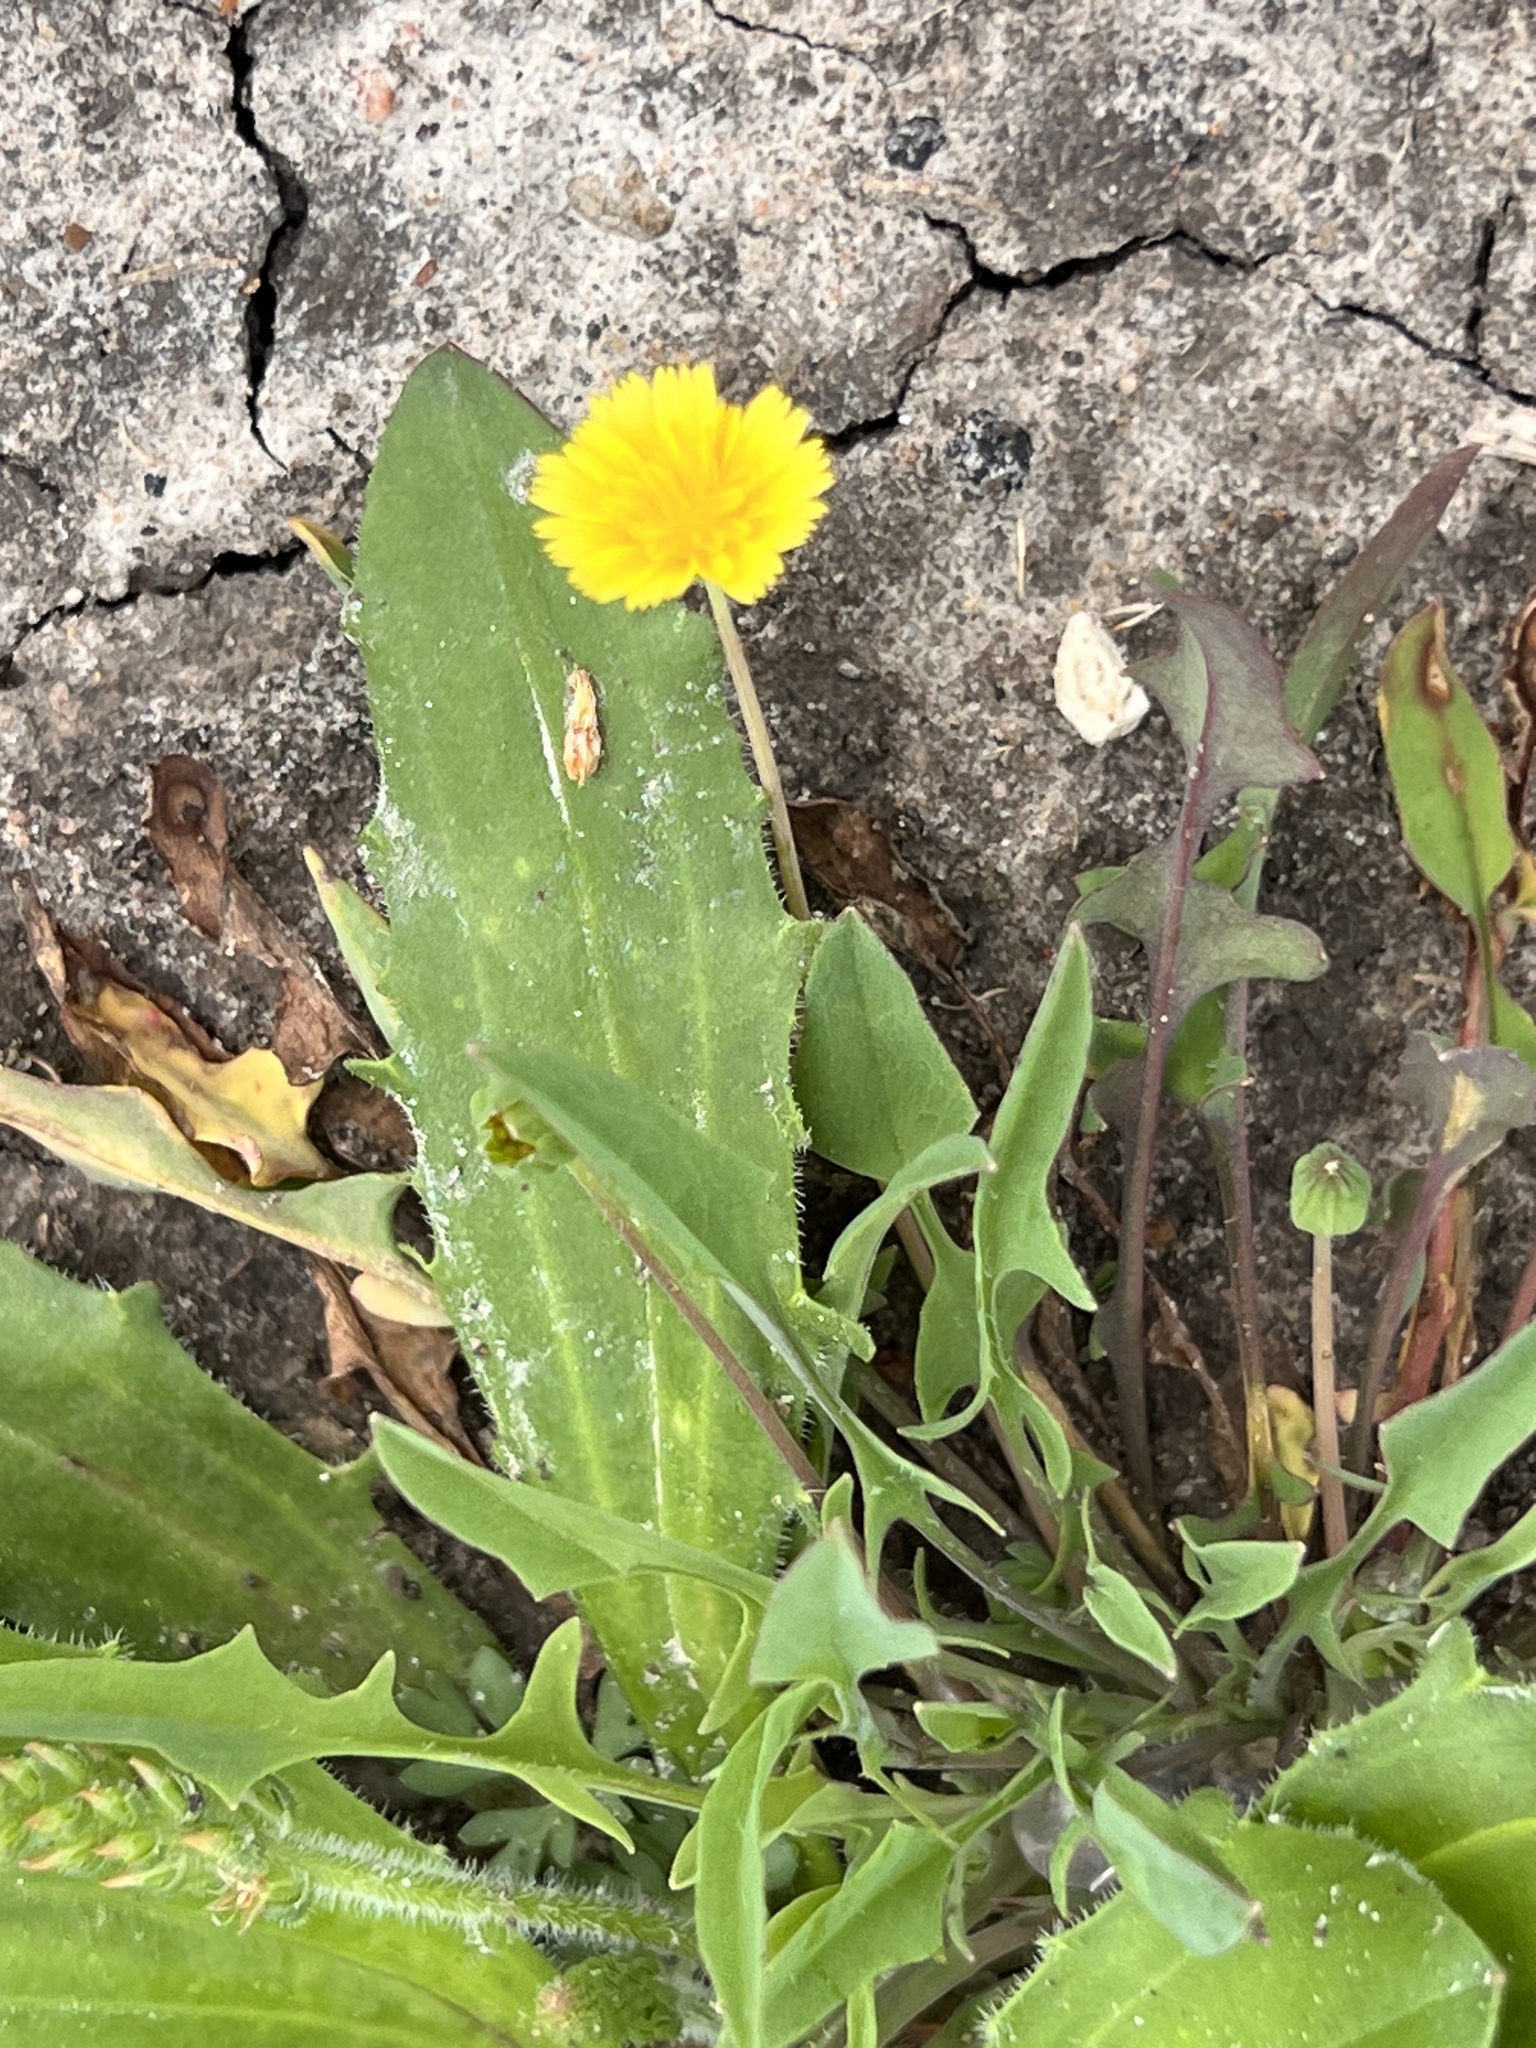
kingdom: Plantae
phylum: Tracheophyta
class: Magnoliopsida
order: Asterales
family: Asteraceae
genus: Hedypnois
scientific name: Hedypnois rhagadioloides
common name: Cretan weed
